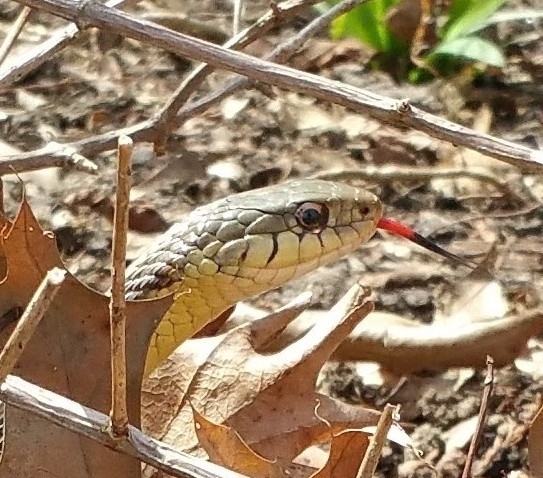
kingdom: Animalia
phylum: Chordata
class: Squamata
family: Colubridae
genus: Thamnophis
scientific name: Thamnophis sirtalis
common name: Common garter snake
